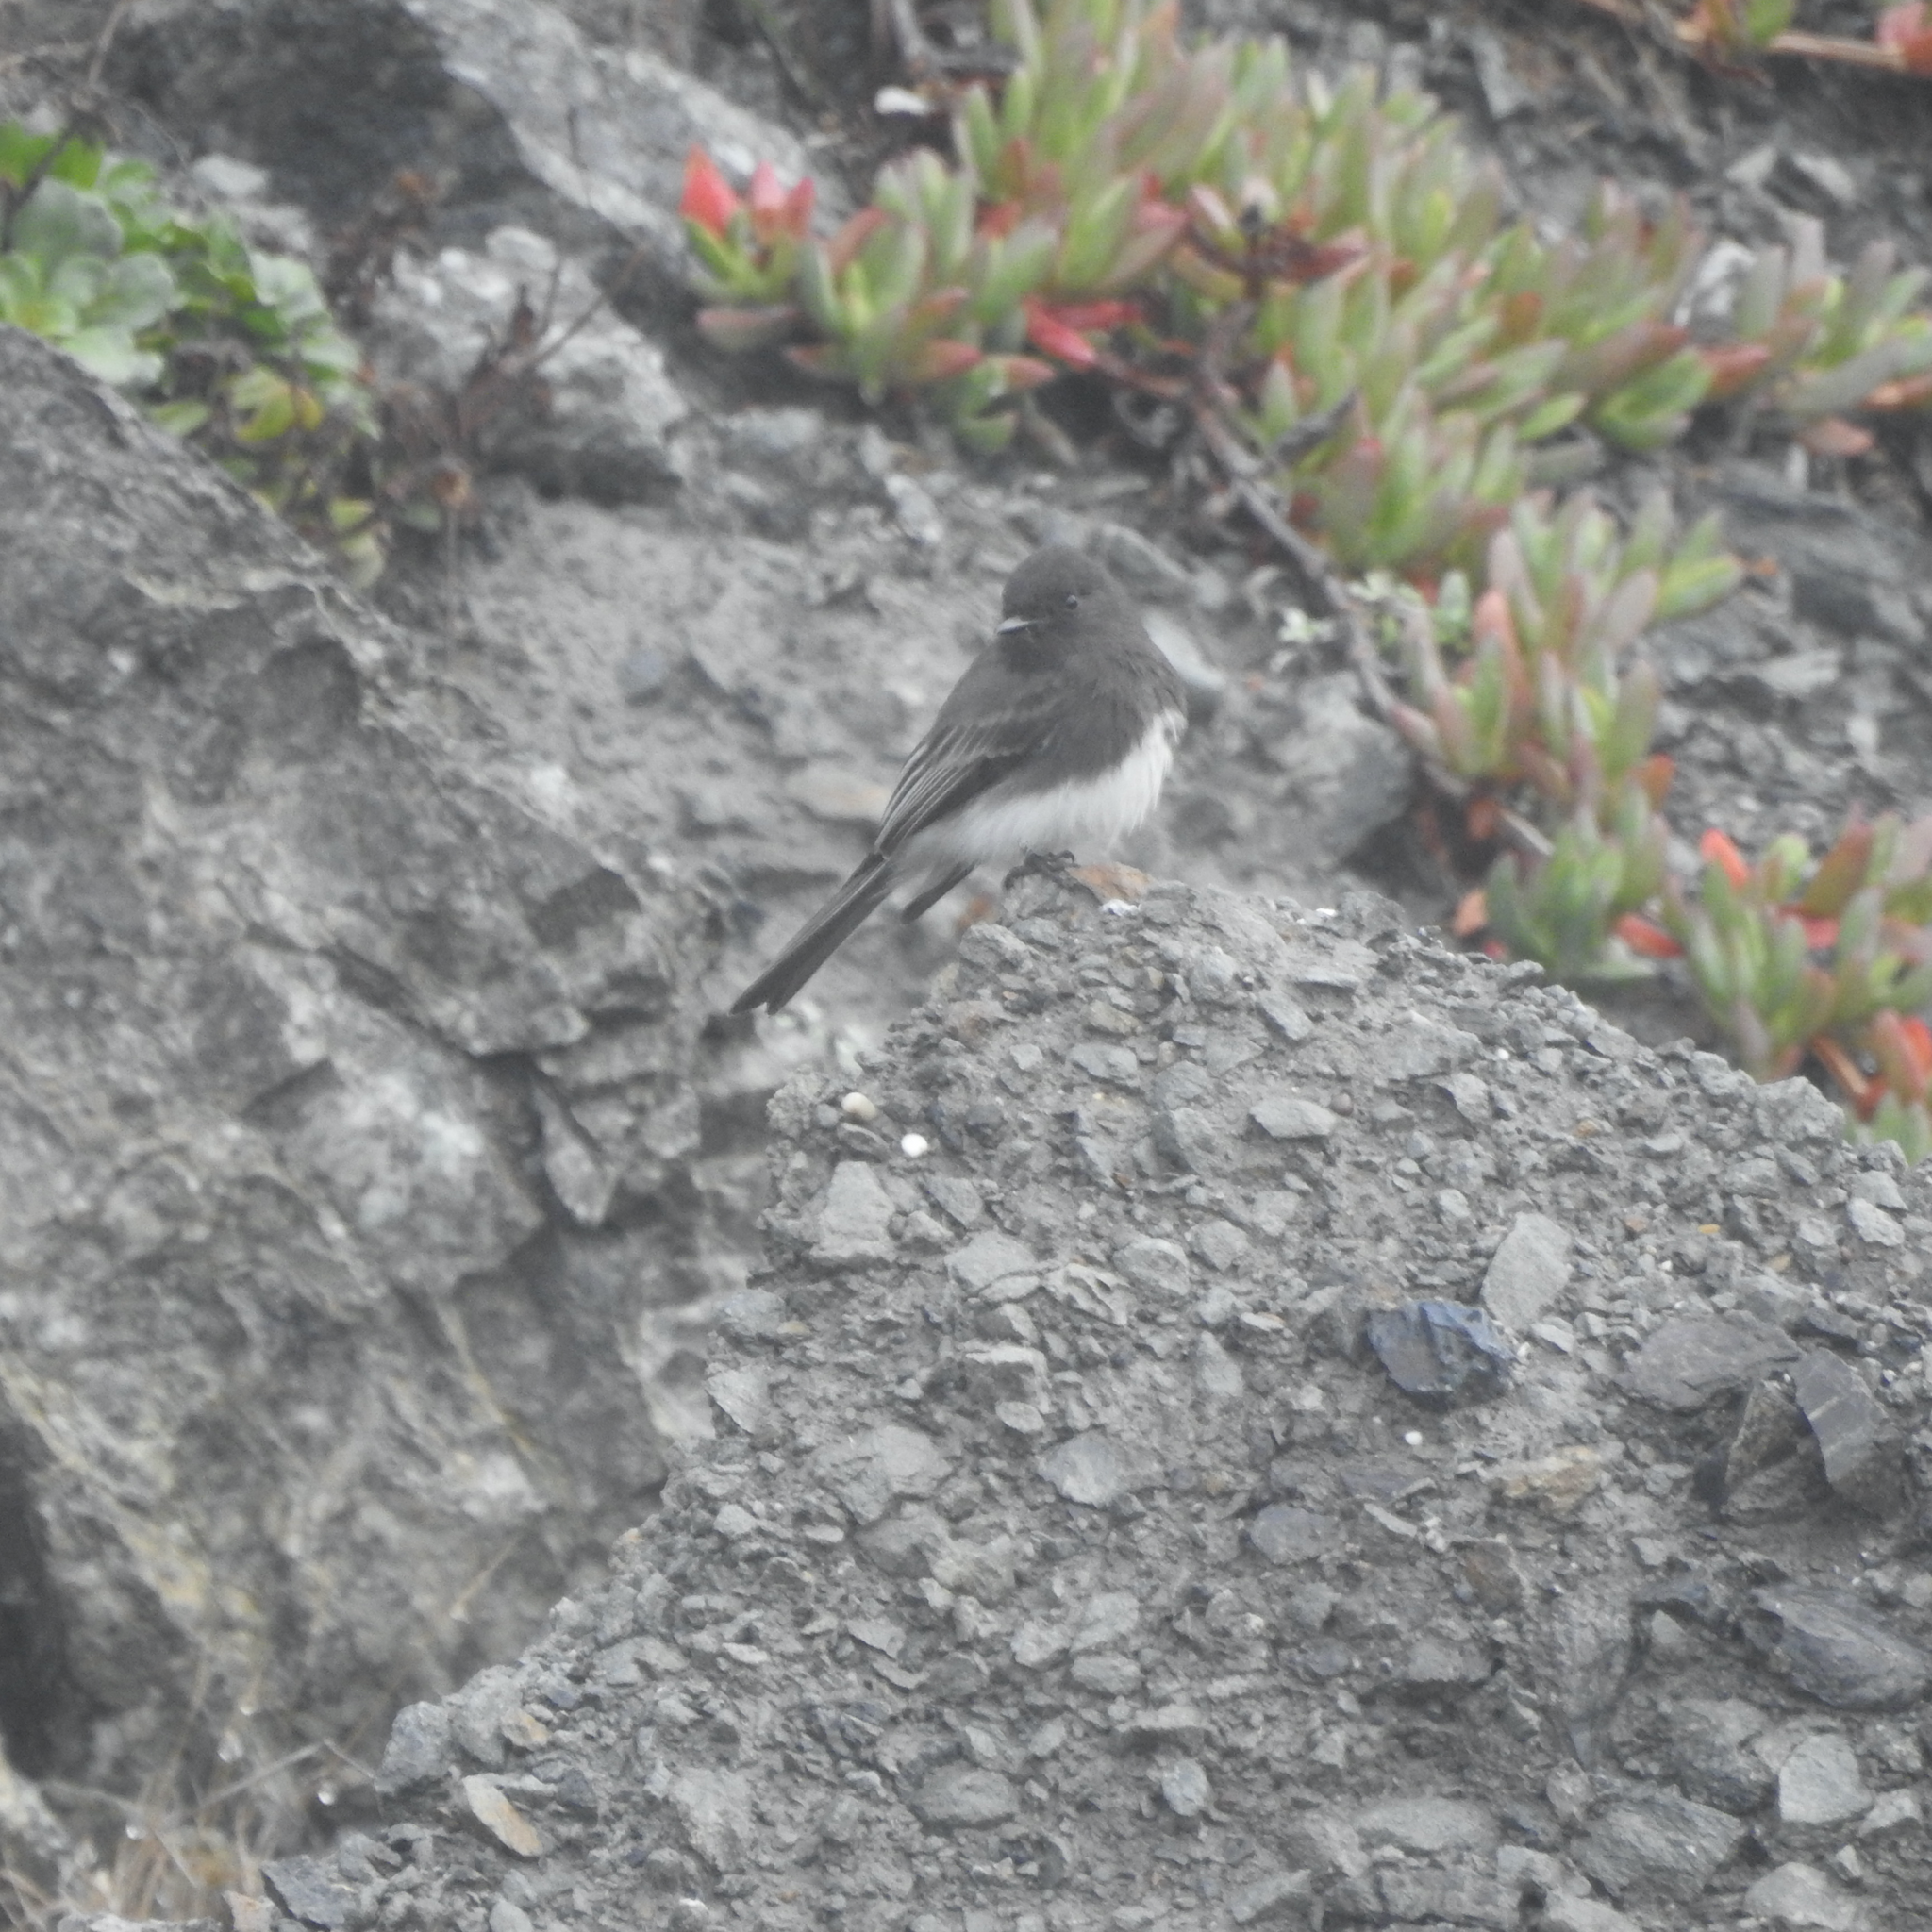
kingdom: Animalia
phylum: Chordata
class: Aves
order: Passeriformes
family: Tyrannidae
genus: Sayornis
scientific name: Sayornis nigricans
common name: Black phoebe
